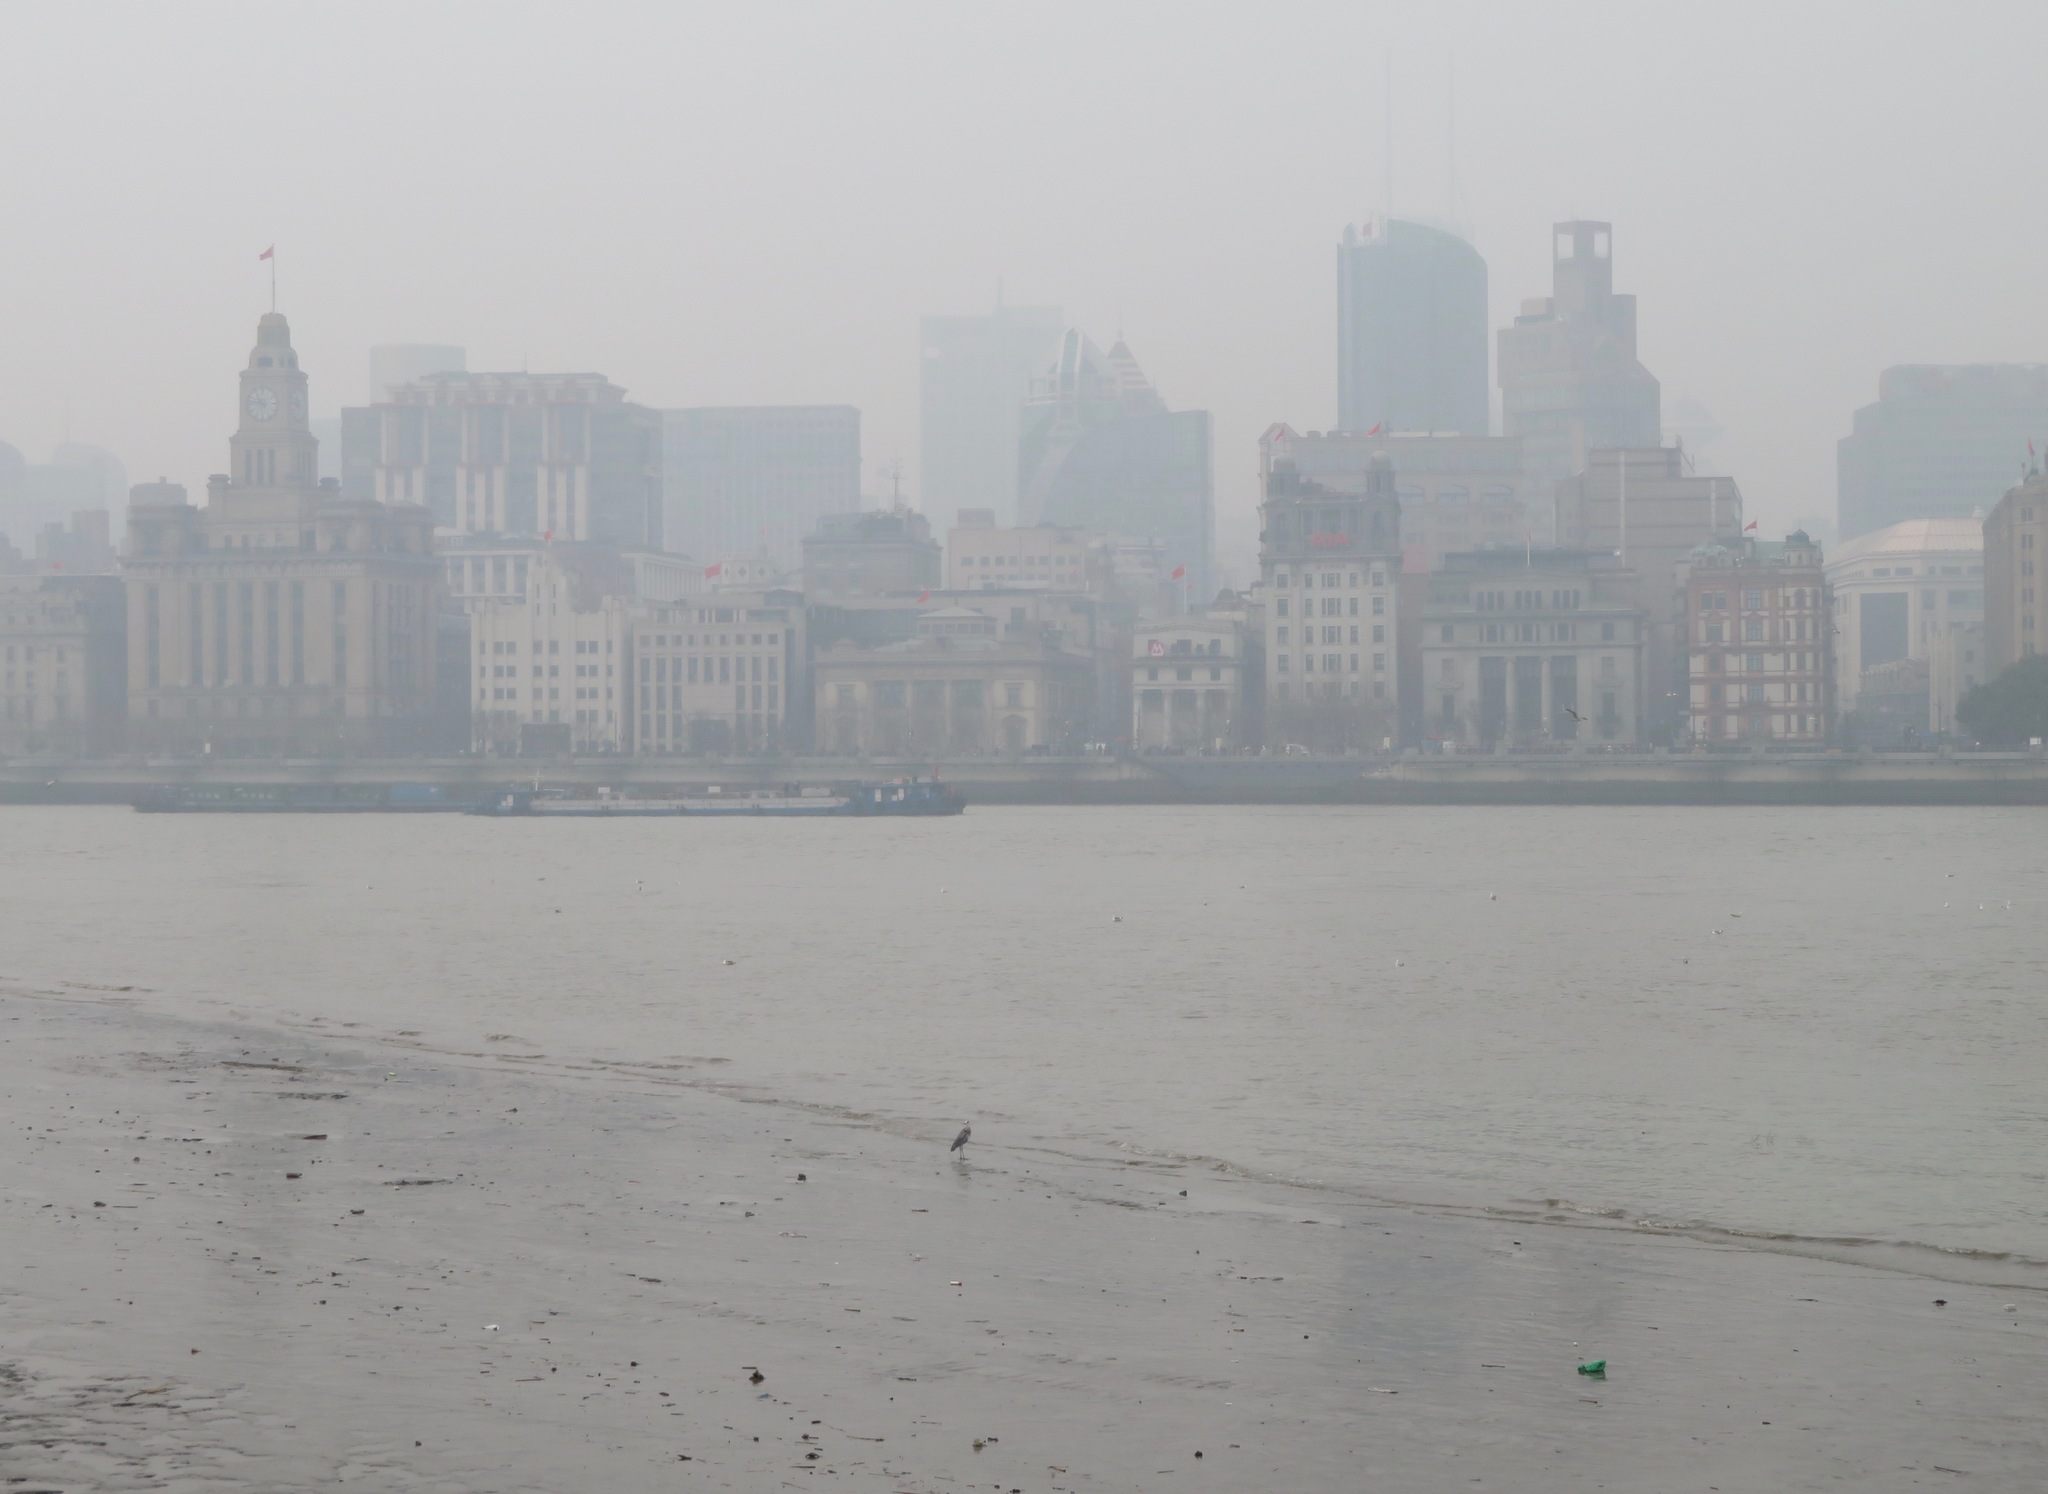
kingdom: Animalia
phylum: Chordata
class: Aves
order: Pelecaniformes
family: Ardeidae
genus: Ardea
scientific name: Ardea cinerea
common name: Grey heron
